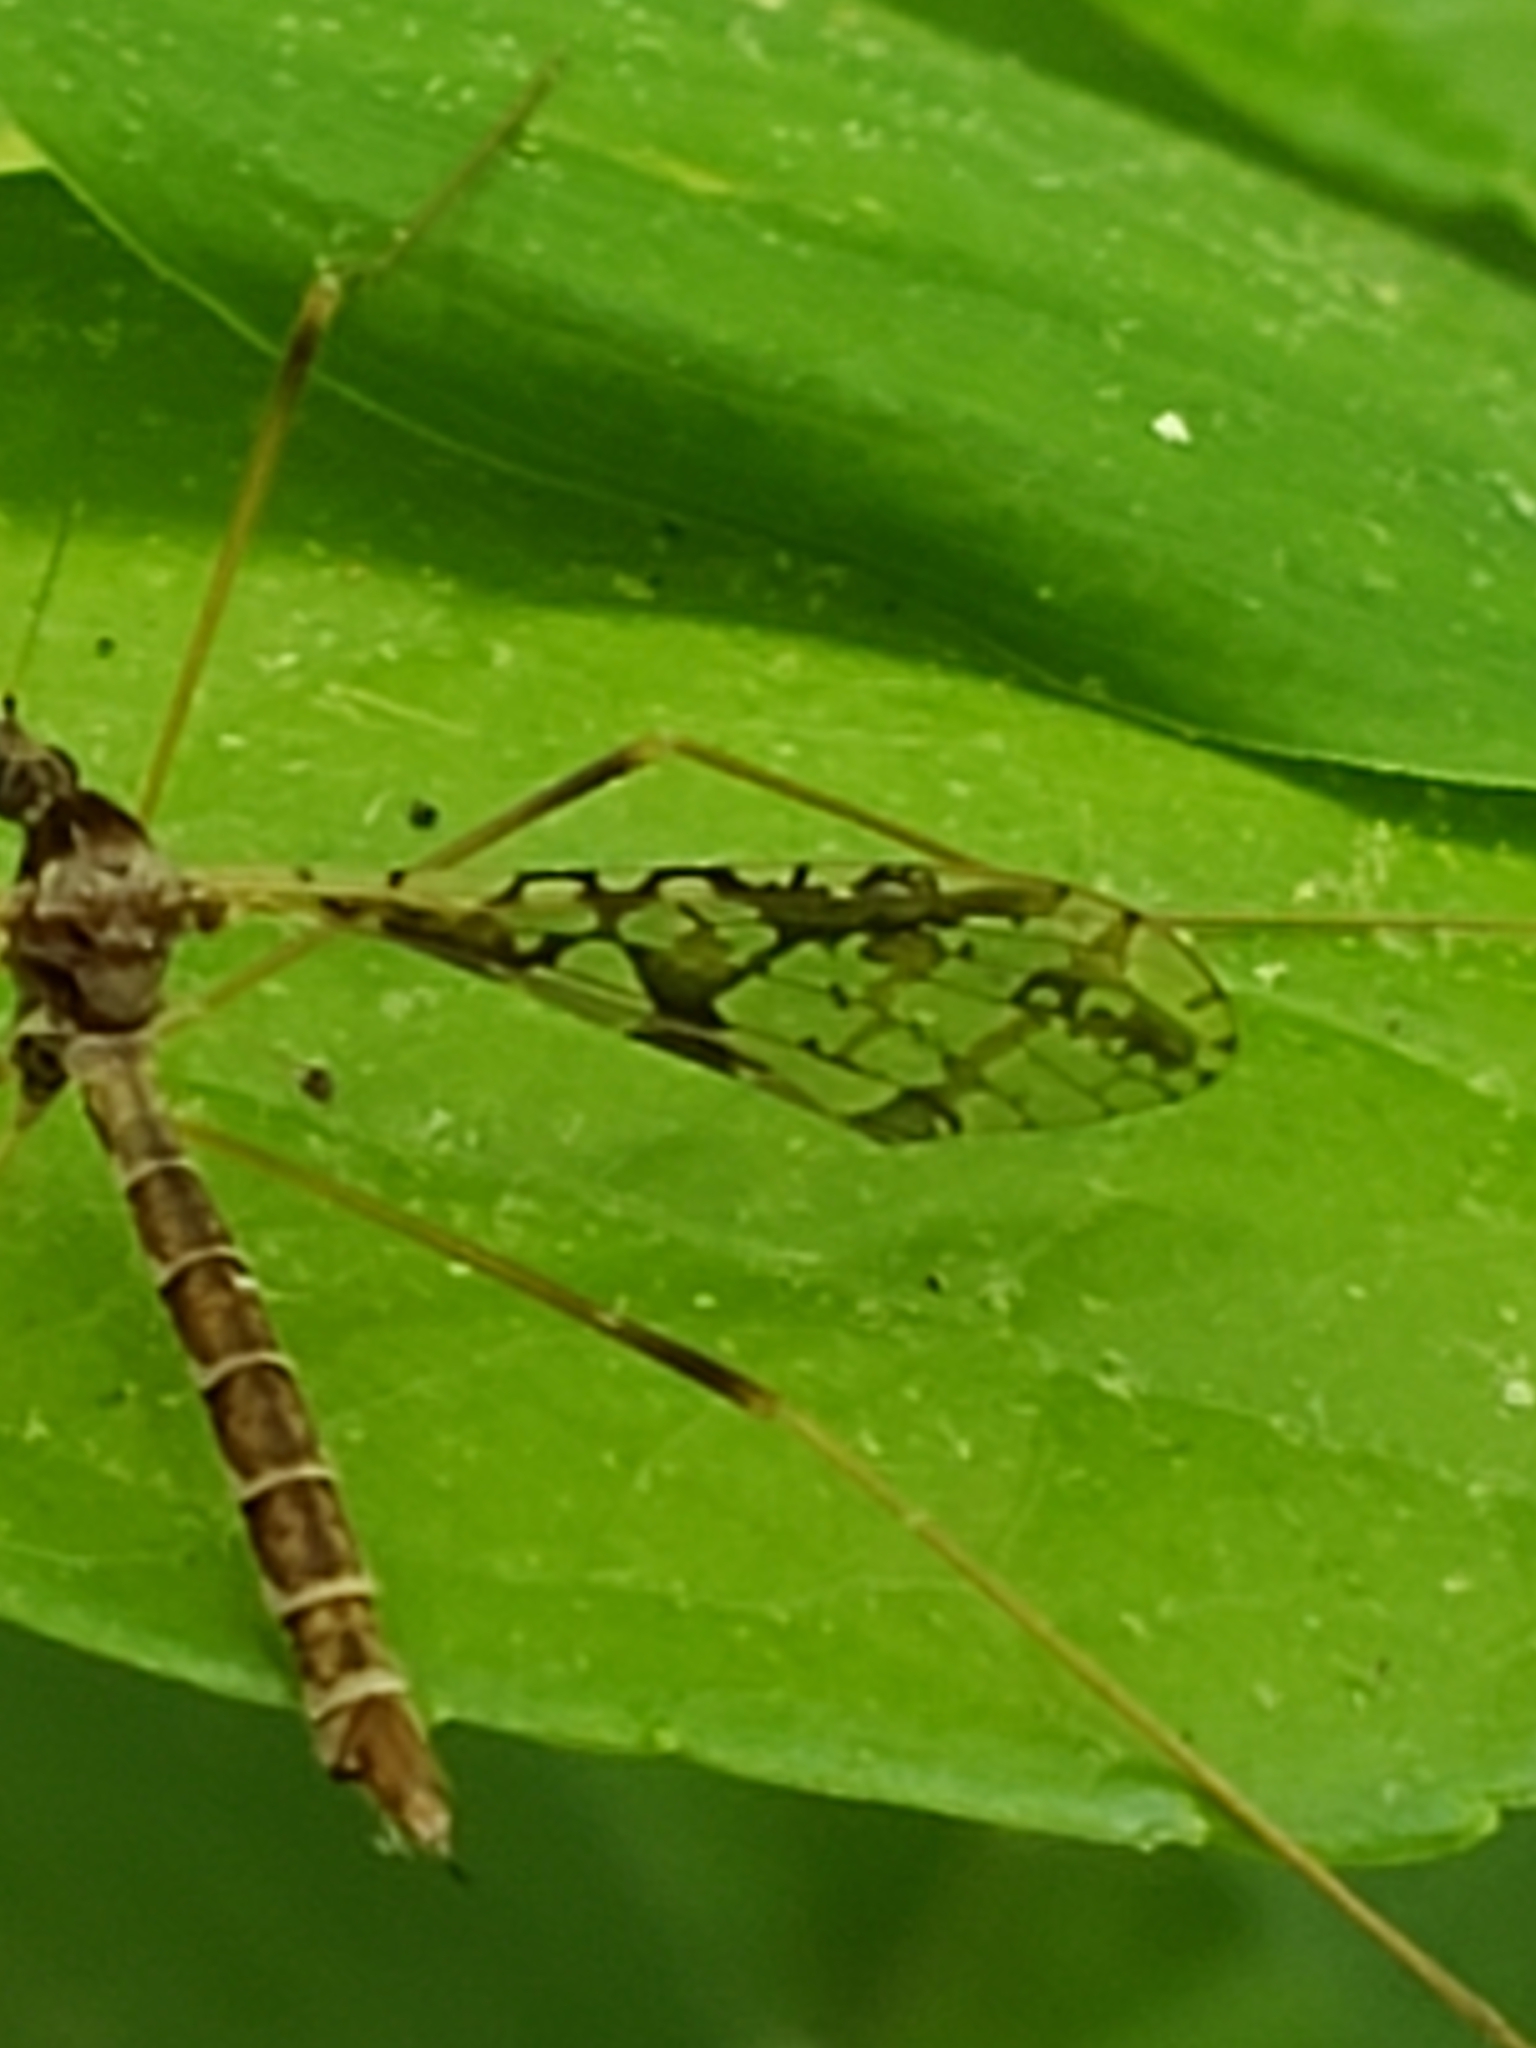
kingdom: Animalia
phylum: Arthropoda
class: Insecta
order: Diptera
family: Limoniidae
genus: Epiphragma
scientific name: Epiphragma solatrix
